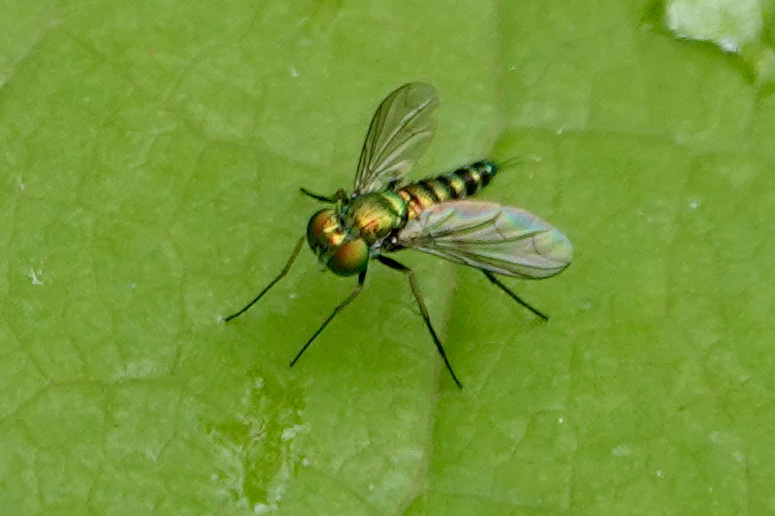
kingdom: Animalia
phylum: Arthropoda
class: Insecta
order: Diptera
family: Dolichopodidae
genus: Condylostylus
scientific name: Condylostylus caudatus
